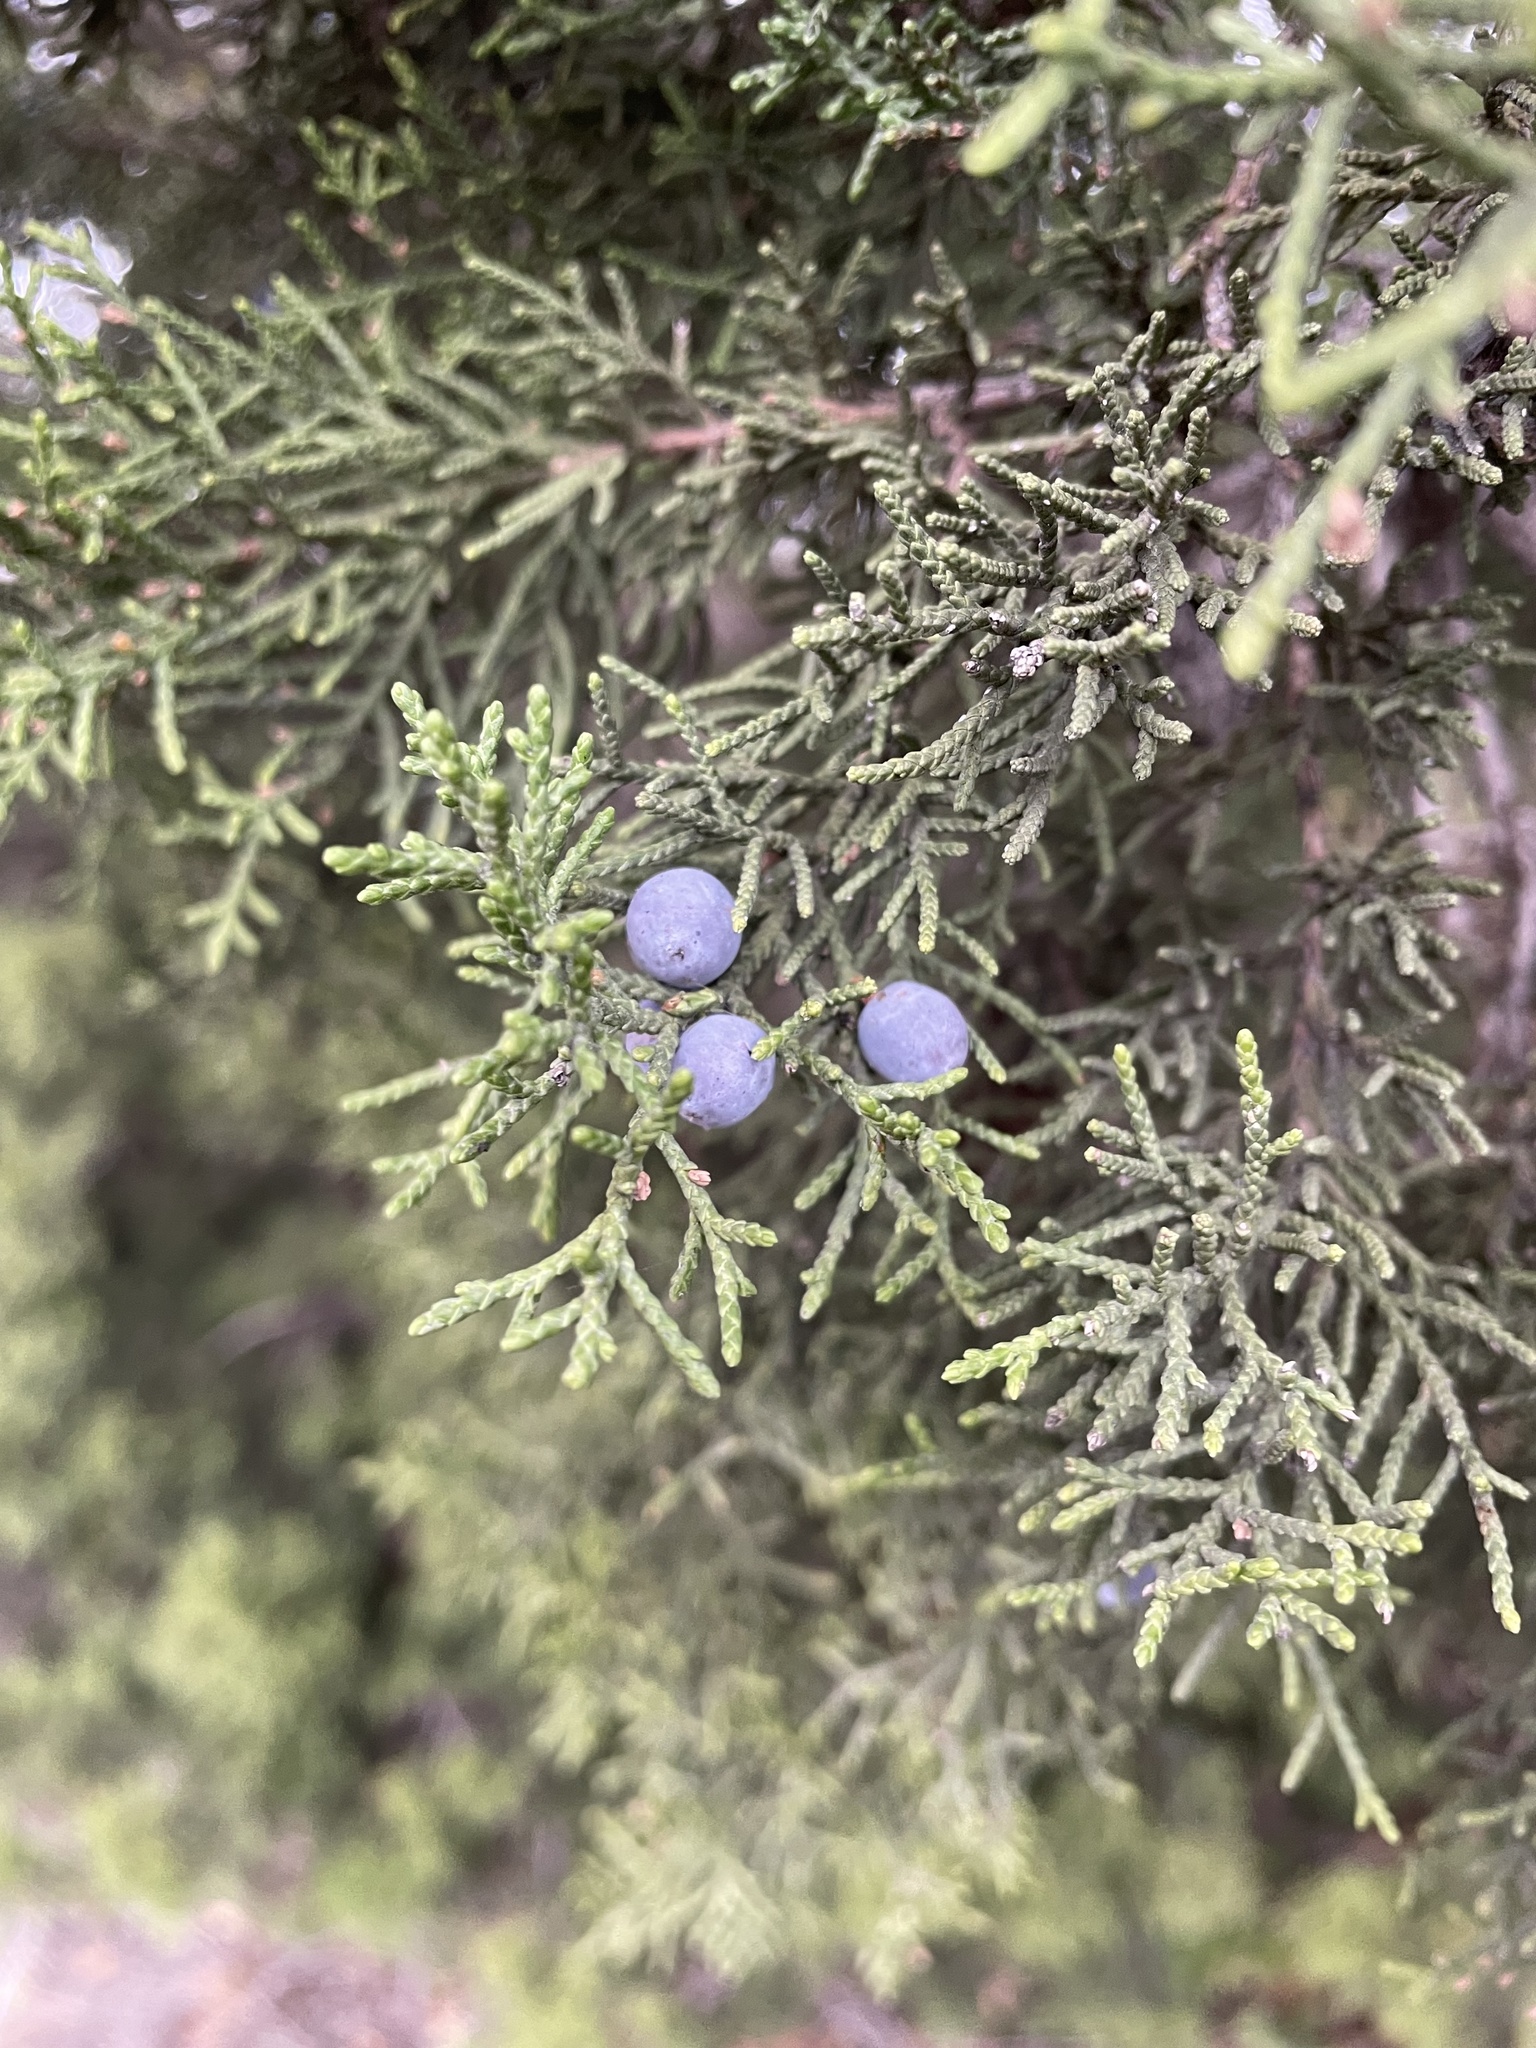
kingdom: Plantae
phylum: Tracheophyta
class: Pinopsida
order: Pinales
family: Cupressaceae
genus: Juniperus
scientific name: Juniperus ashei
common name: Mexican juniper
